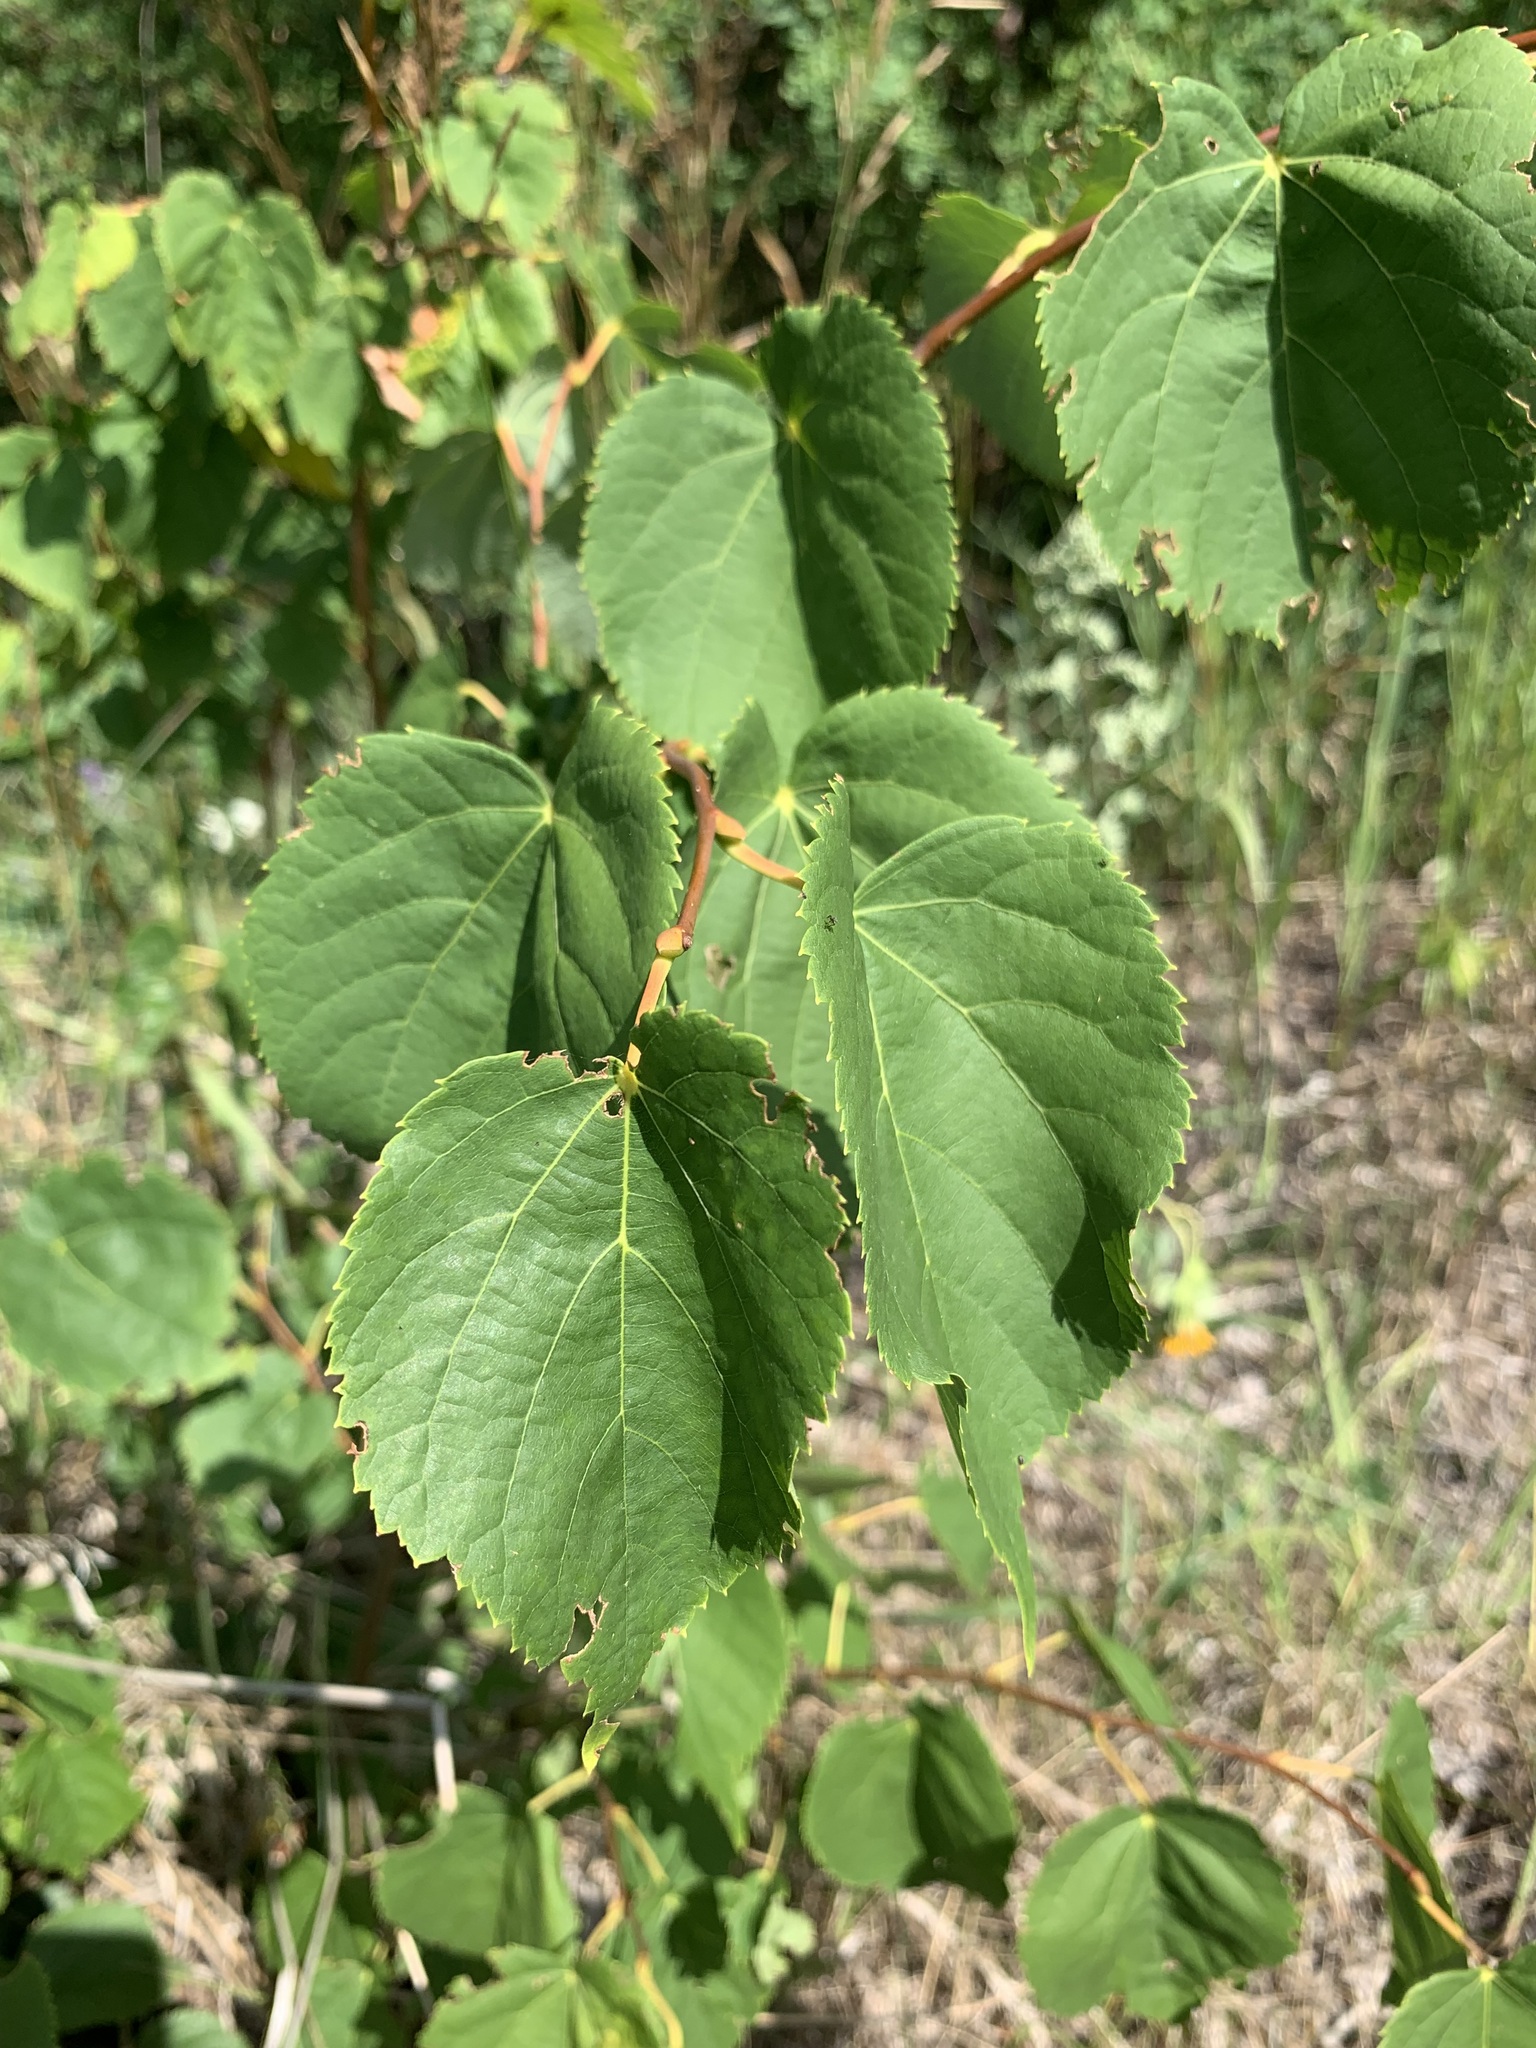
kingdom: Plantae
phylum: Tracheophyta
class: Magnoliopsida
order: Malvales
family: Malvaceae
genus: Tilia
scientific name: Tilia cordata
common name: Small-leaved lime
